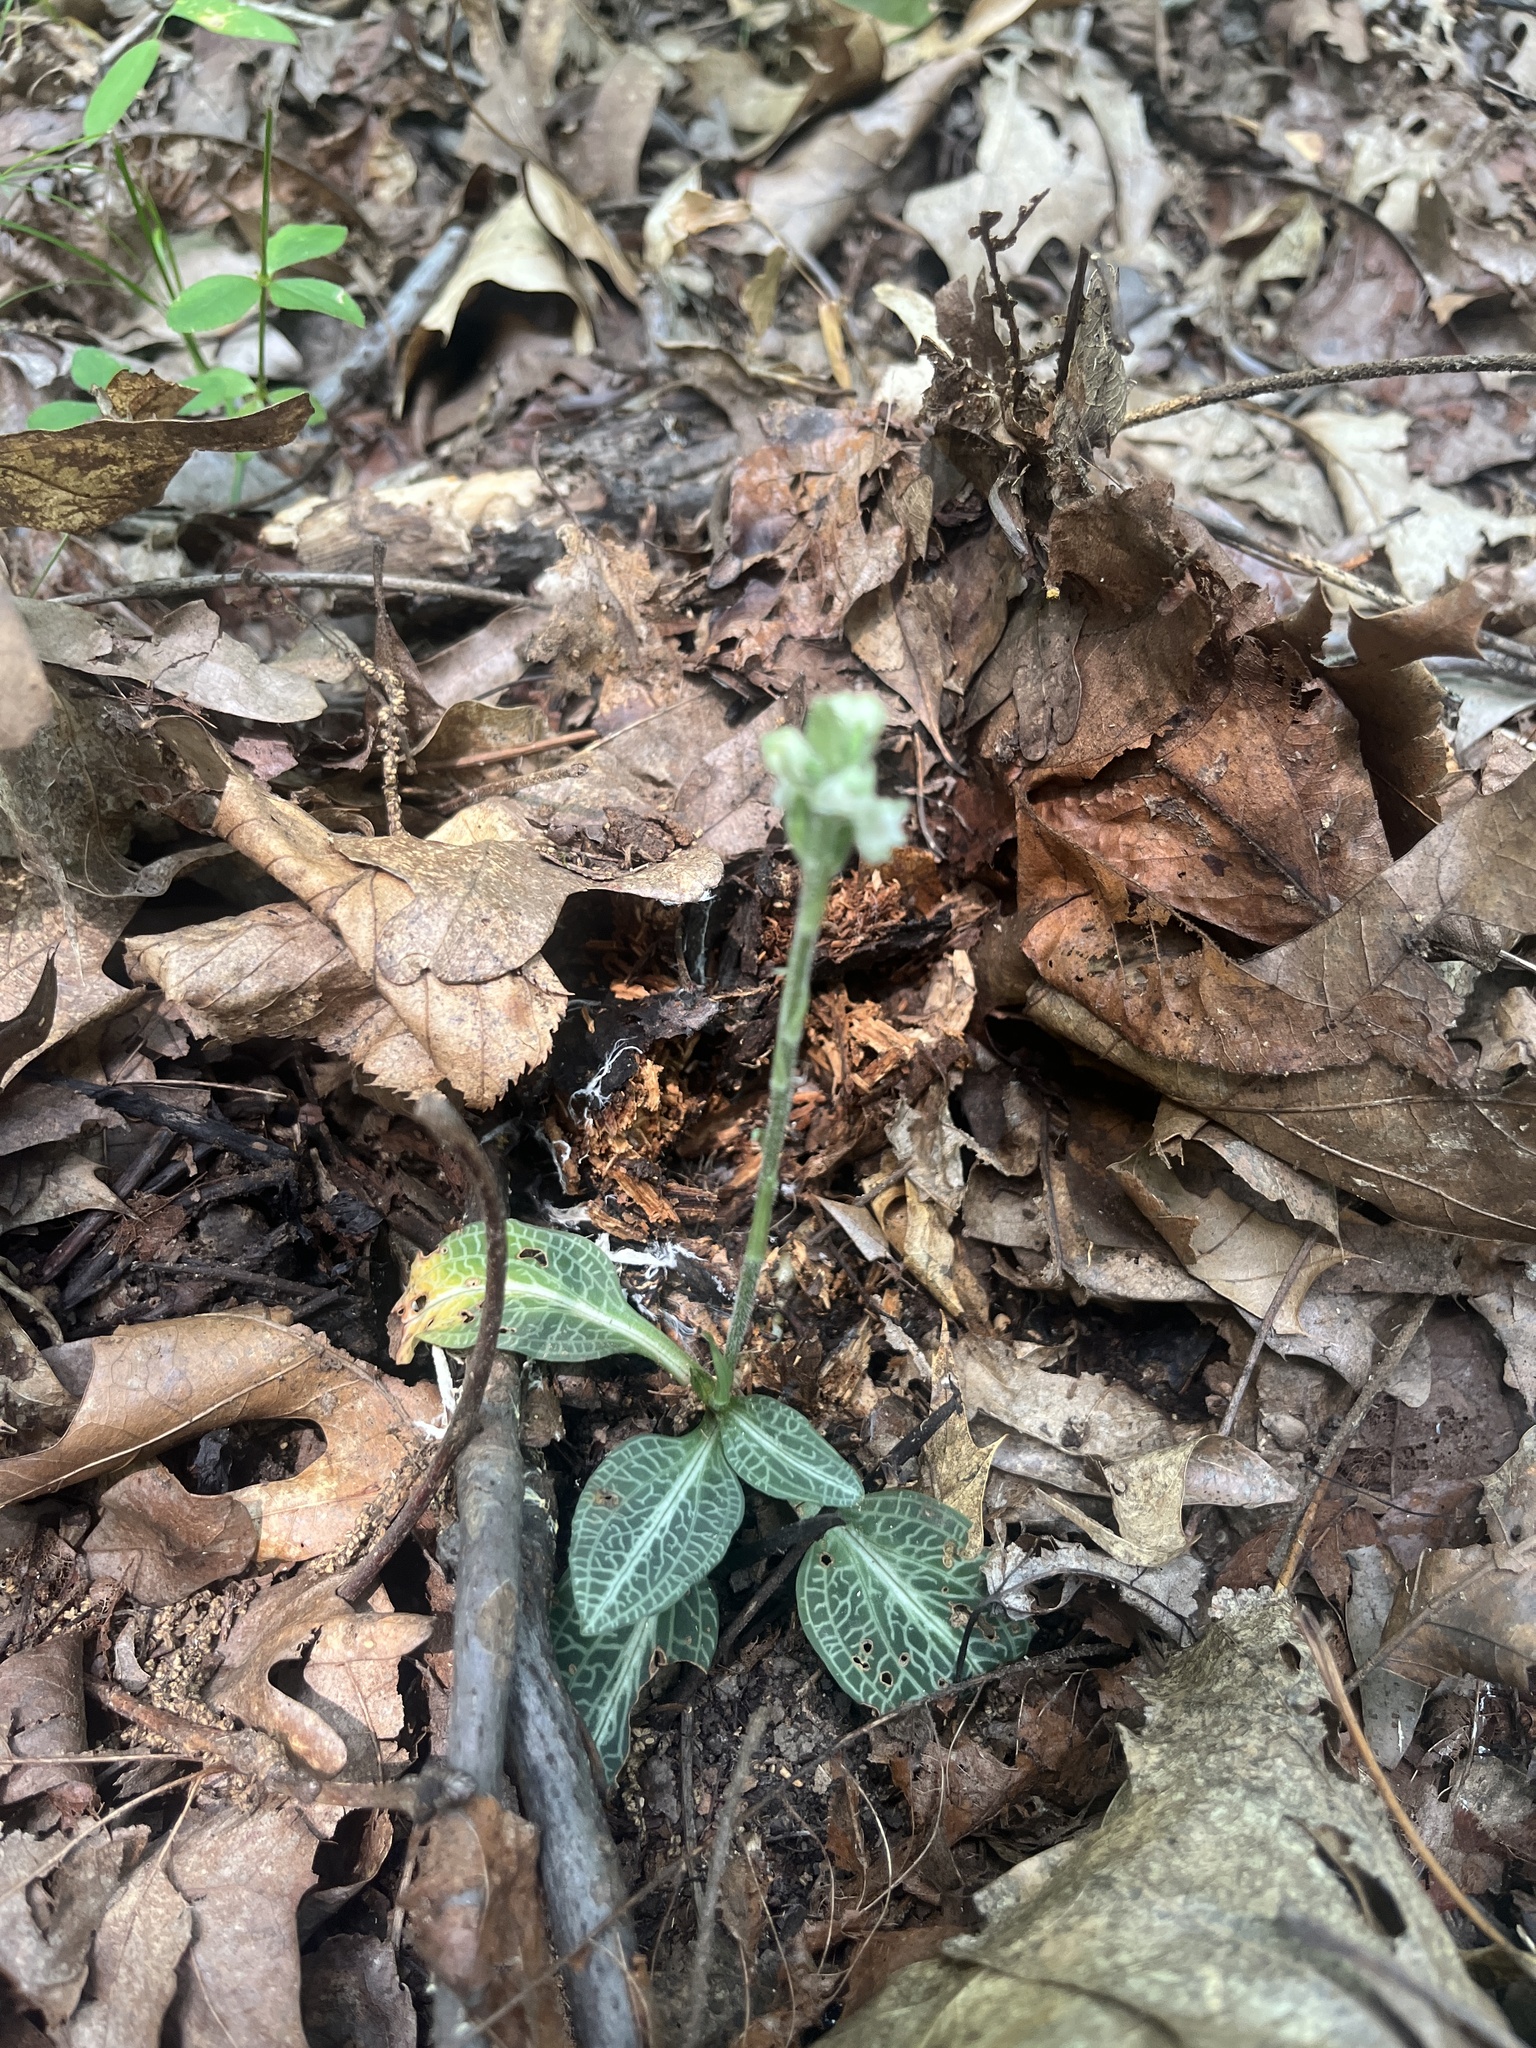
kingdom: Plantae
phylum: Tracheophyta
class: Liliopsida
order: Asparagales
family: Orchidaceae
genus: Goodyera
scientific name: Goodyera pubescens
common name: Downy rattlesnake-plantain
